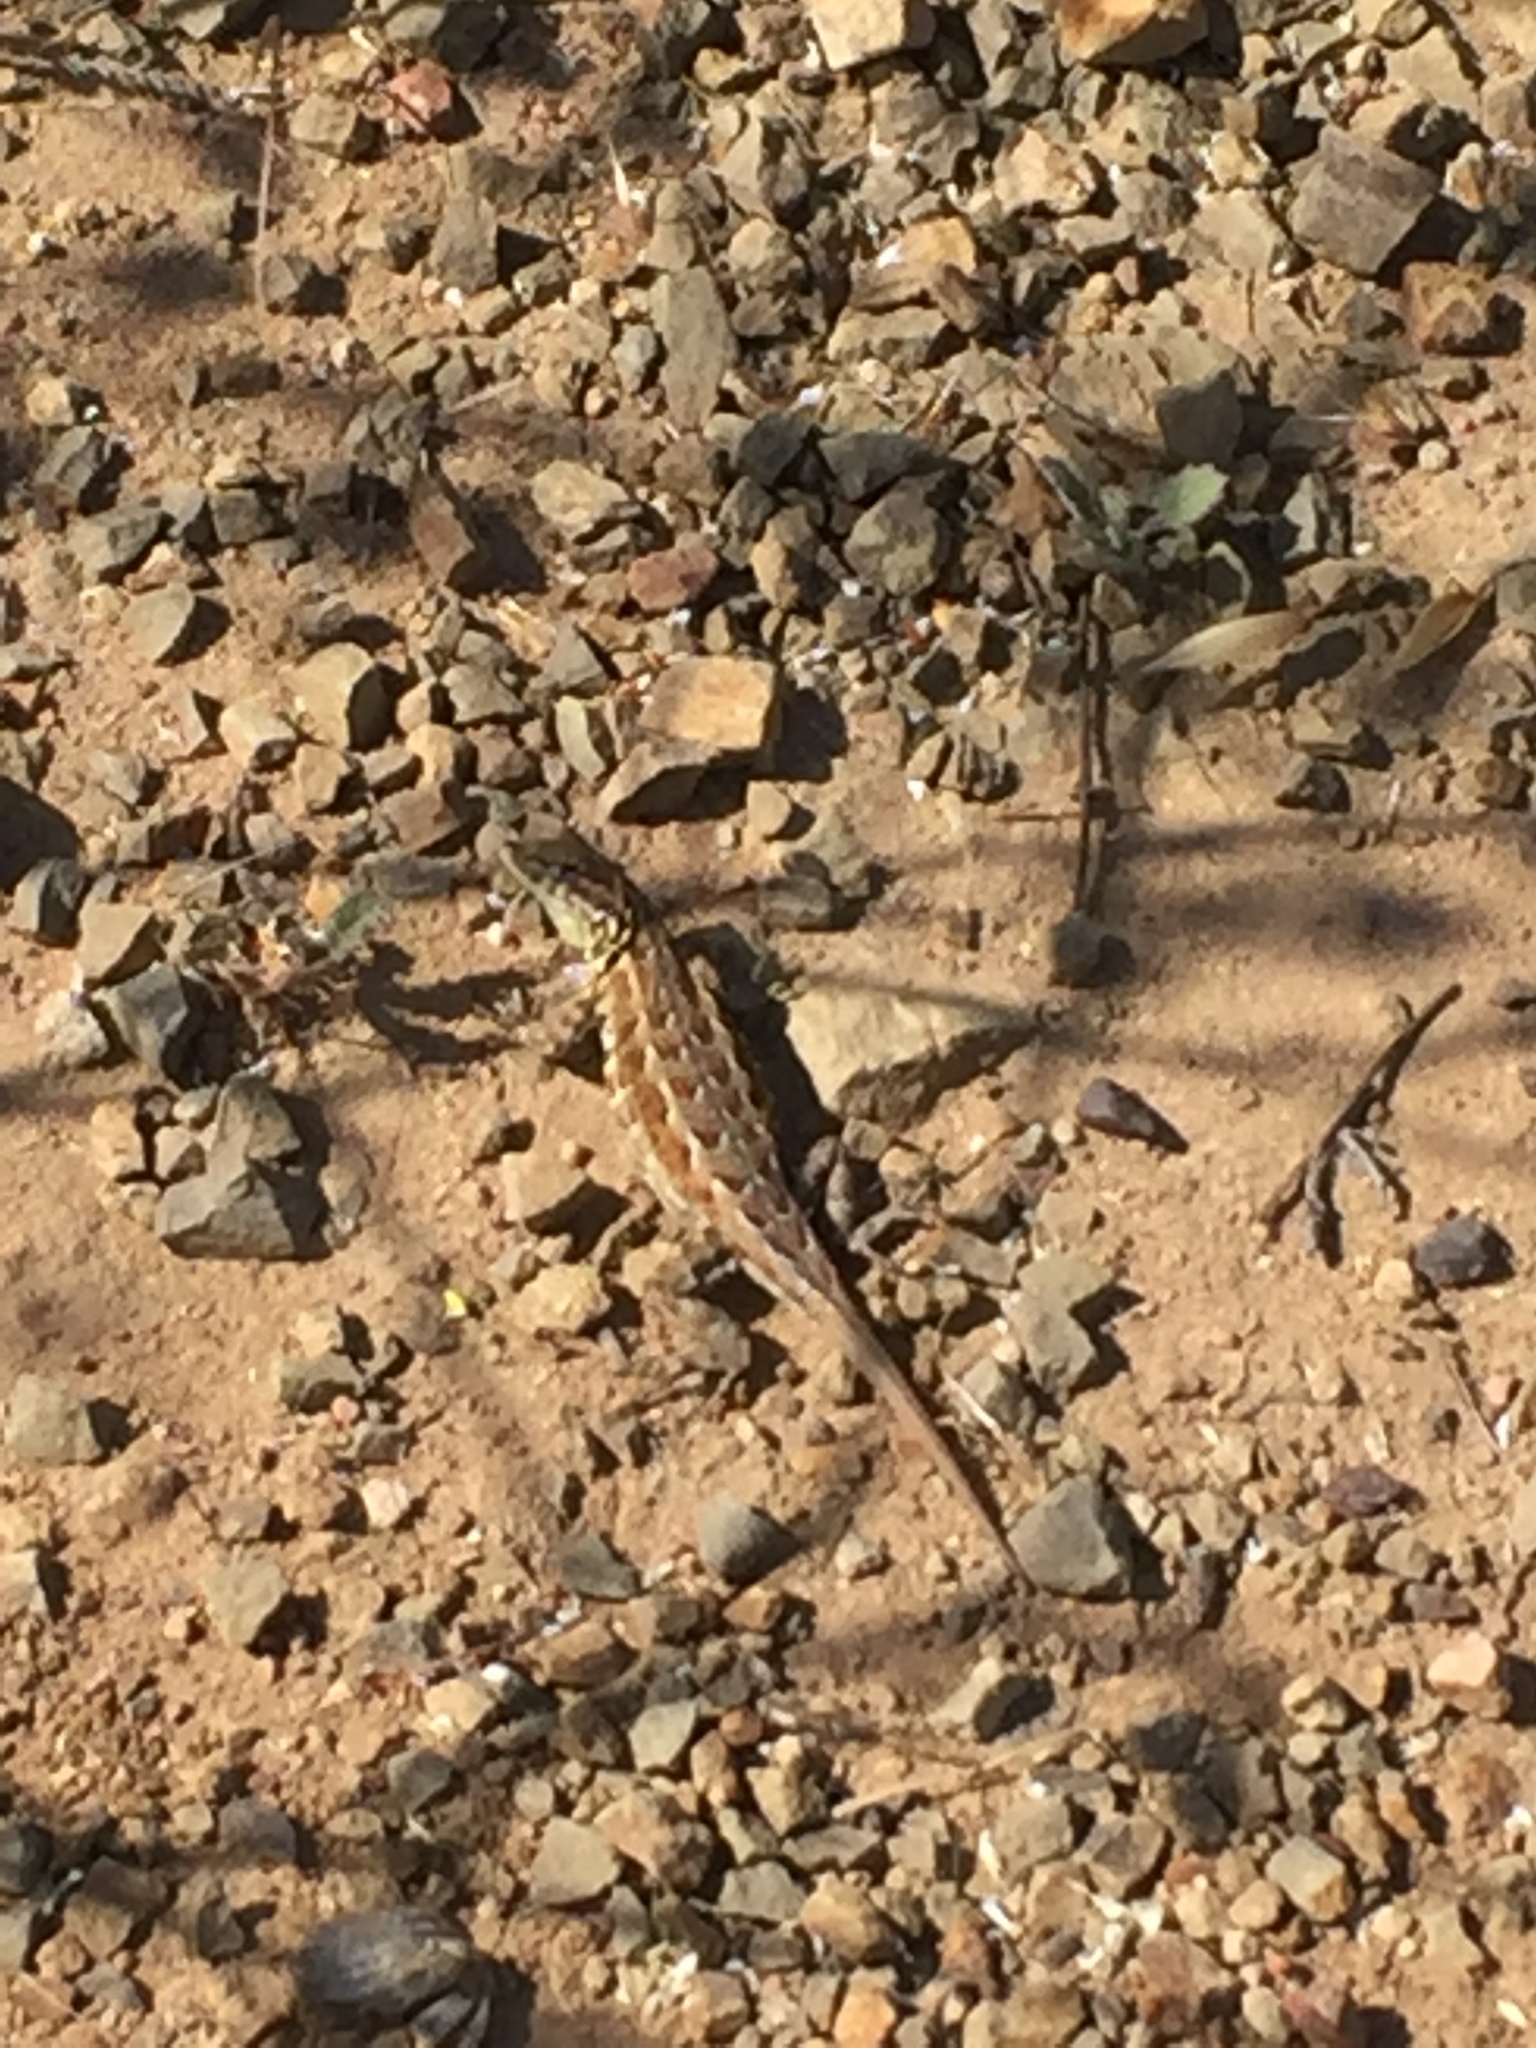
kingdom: Animalia
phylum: Chordata
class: Squamata
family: Phrynosomatidae
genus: Uta
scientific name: Uta stansburiana
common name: Side-blotched lizard
